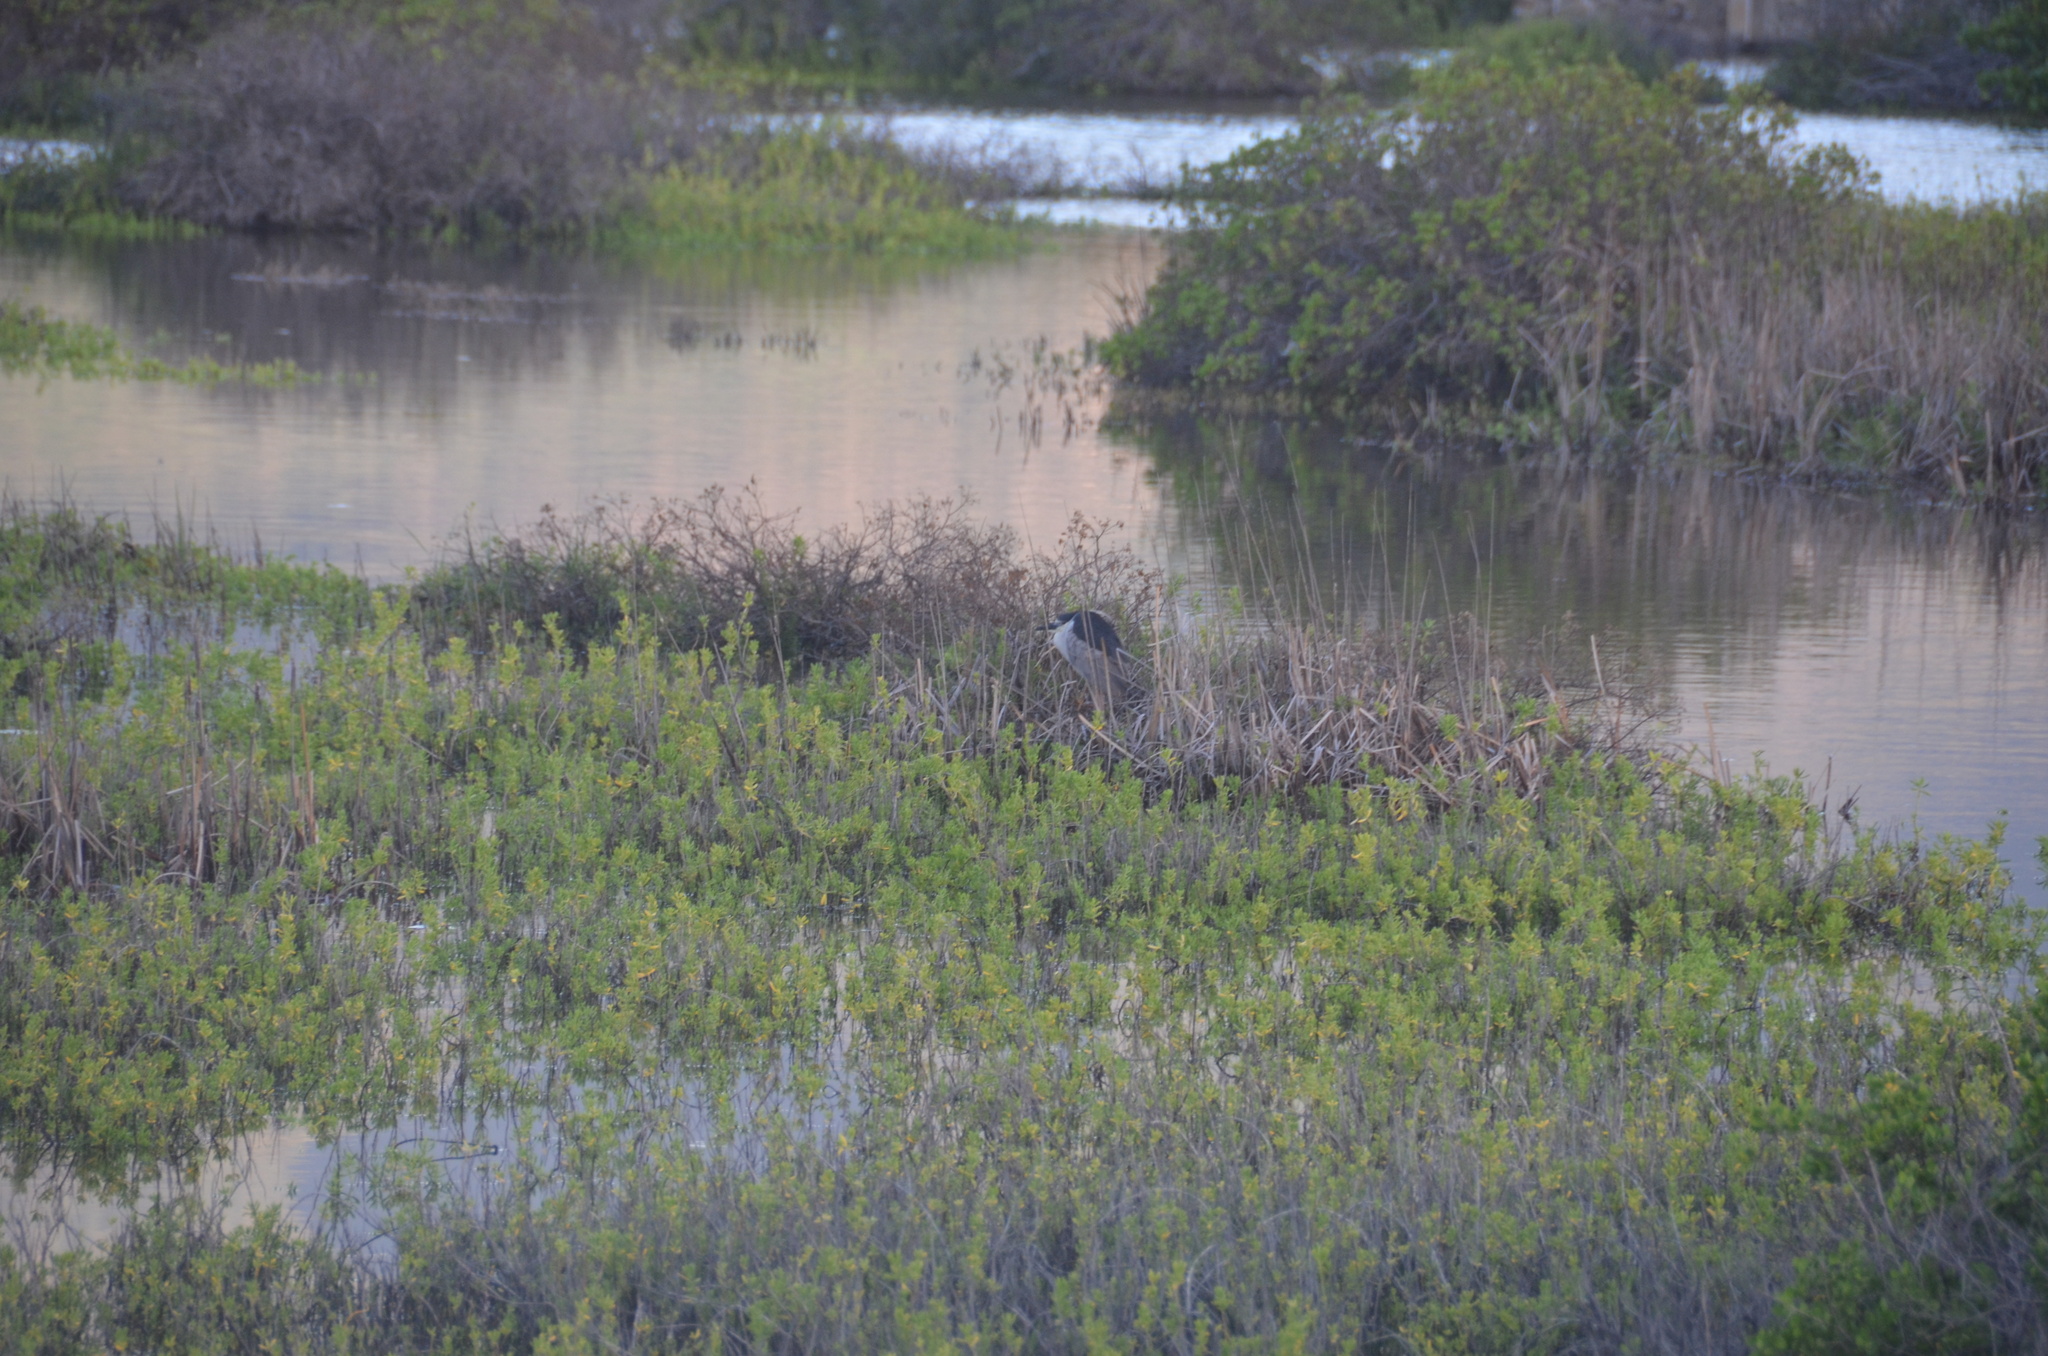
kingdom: Animalia
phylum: Chordata
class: Aves
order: Pelecaniformes
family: Ardeidae
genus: Nycticorax
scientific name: Nycticorax nycticorax
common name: Black-crowned night heron
